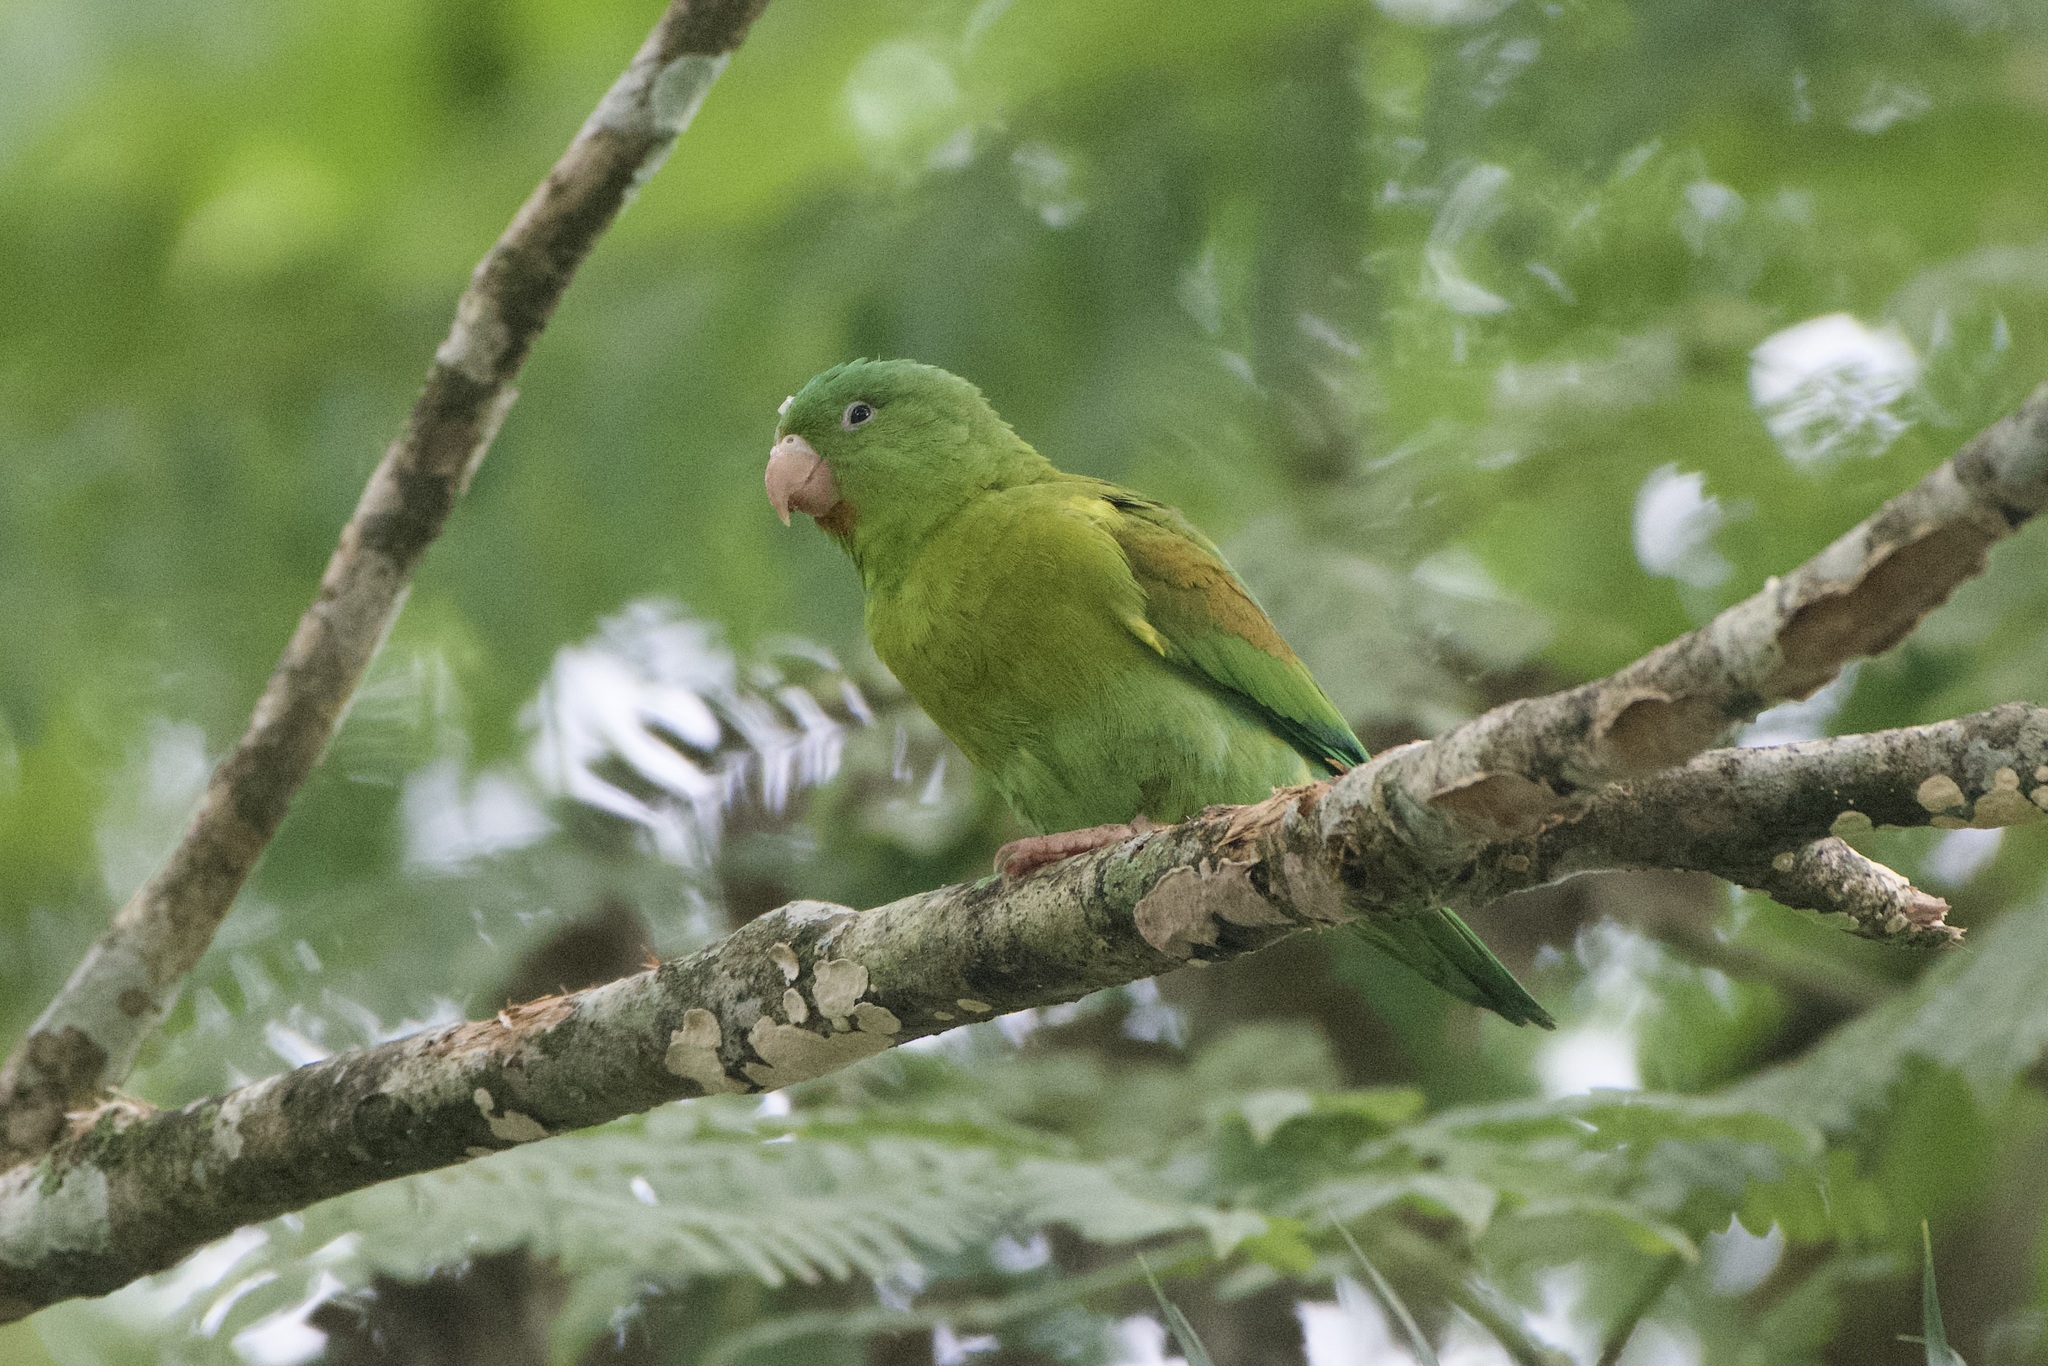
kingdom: Animalia
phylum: Chordata
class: Aves
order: Psittaciformes
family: Psittacidae
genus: Brotogeris
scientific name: Brotogeris jugularis
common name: Orange-chinned parakeet
